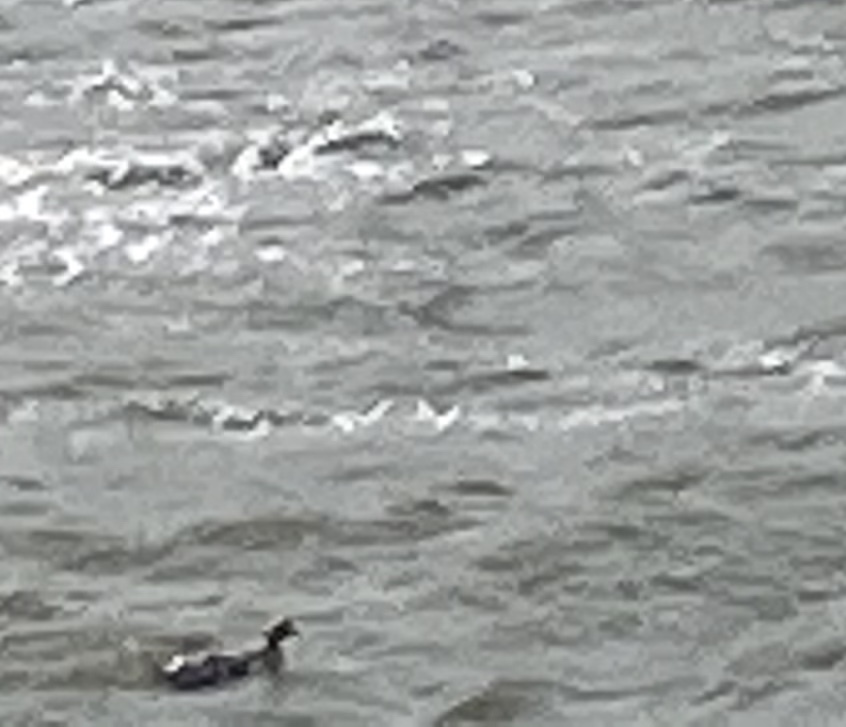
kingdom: Animalia
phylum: Chordata
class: Aves
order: Anseriformes
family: Anatidae
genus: Somateria
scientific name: Somateria mollissima
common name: Common eider
